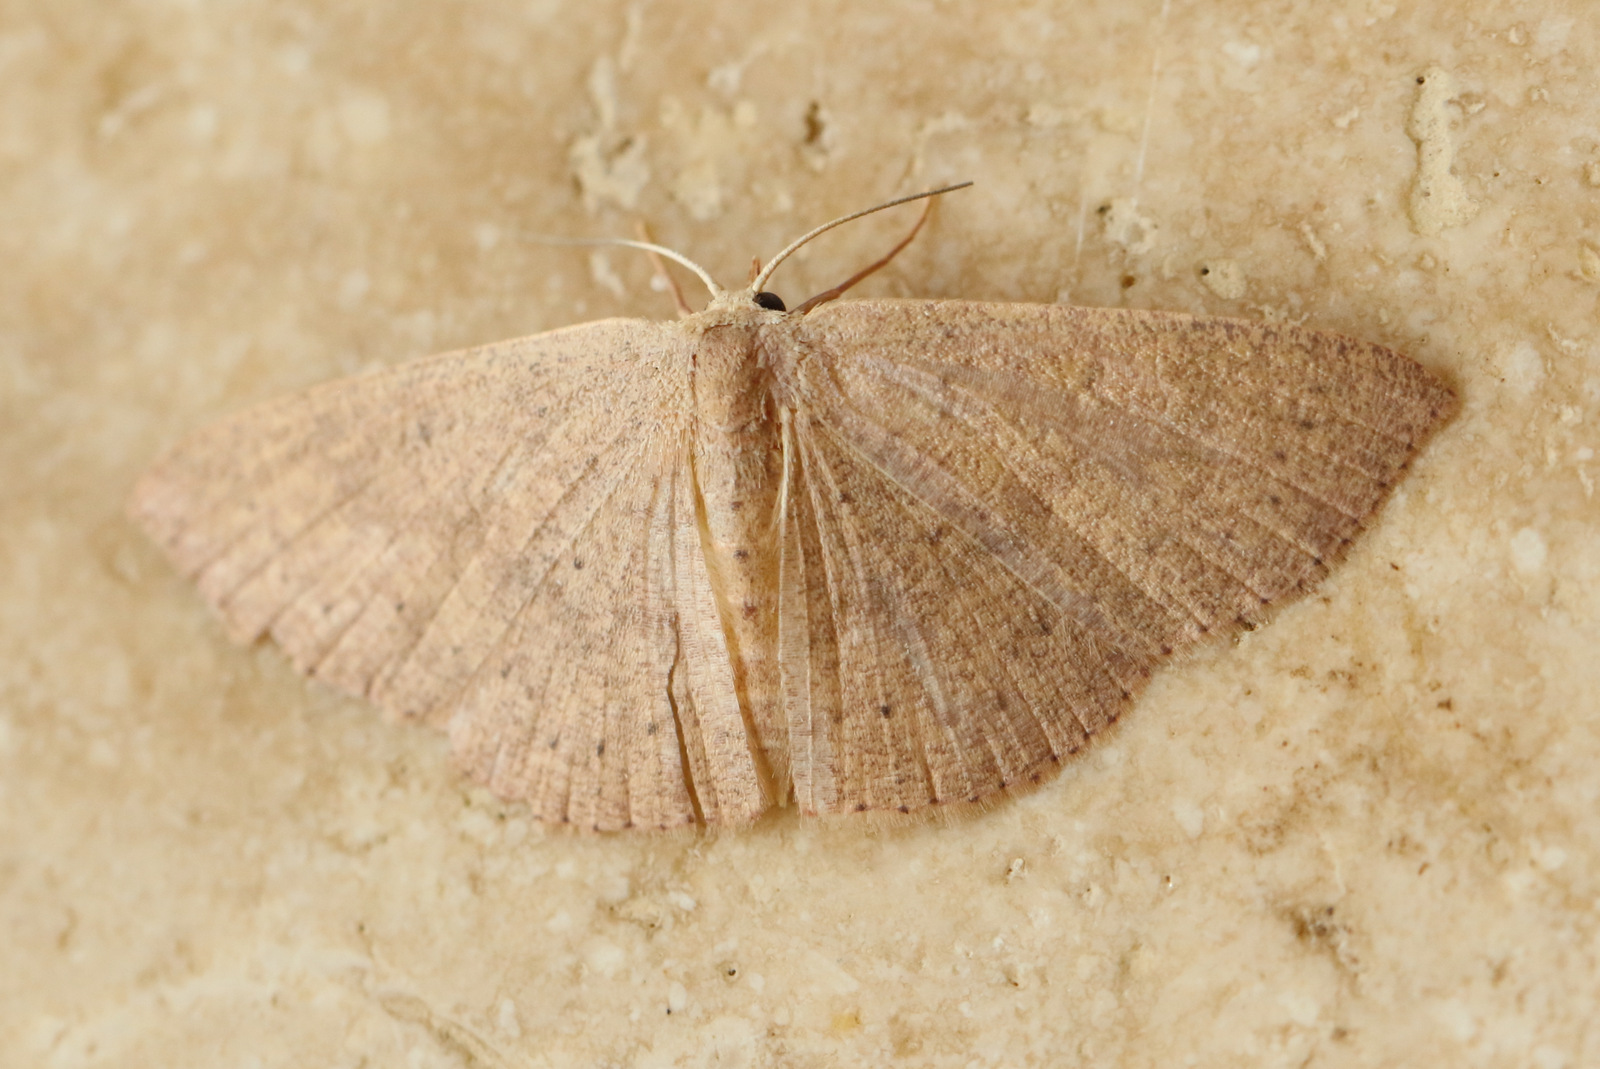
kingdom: Animalia
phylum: Arthropoda
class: Insecta
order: Lepidoptera
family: Geometridae
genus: Cyclophora
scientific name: Cyclophora obstataria
